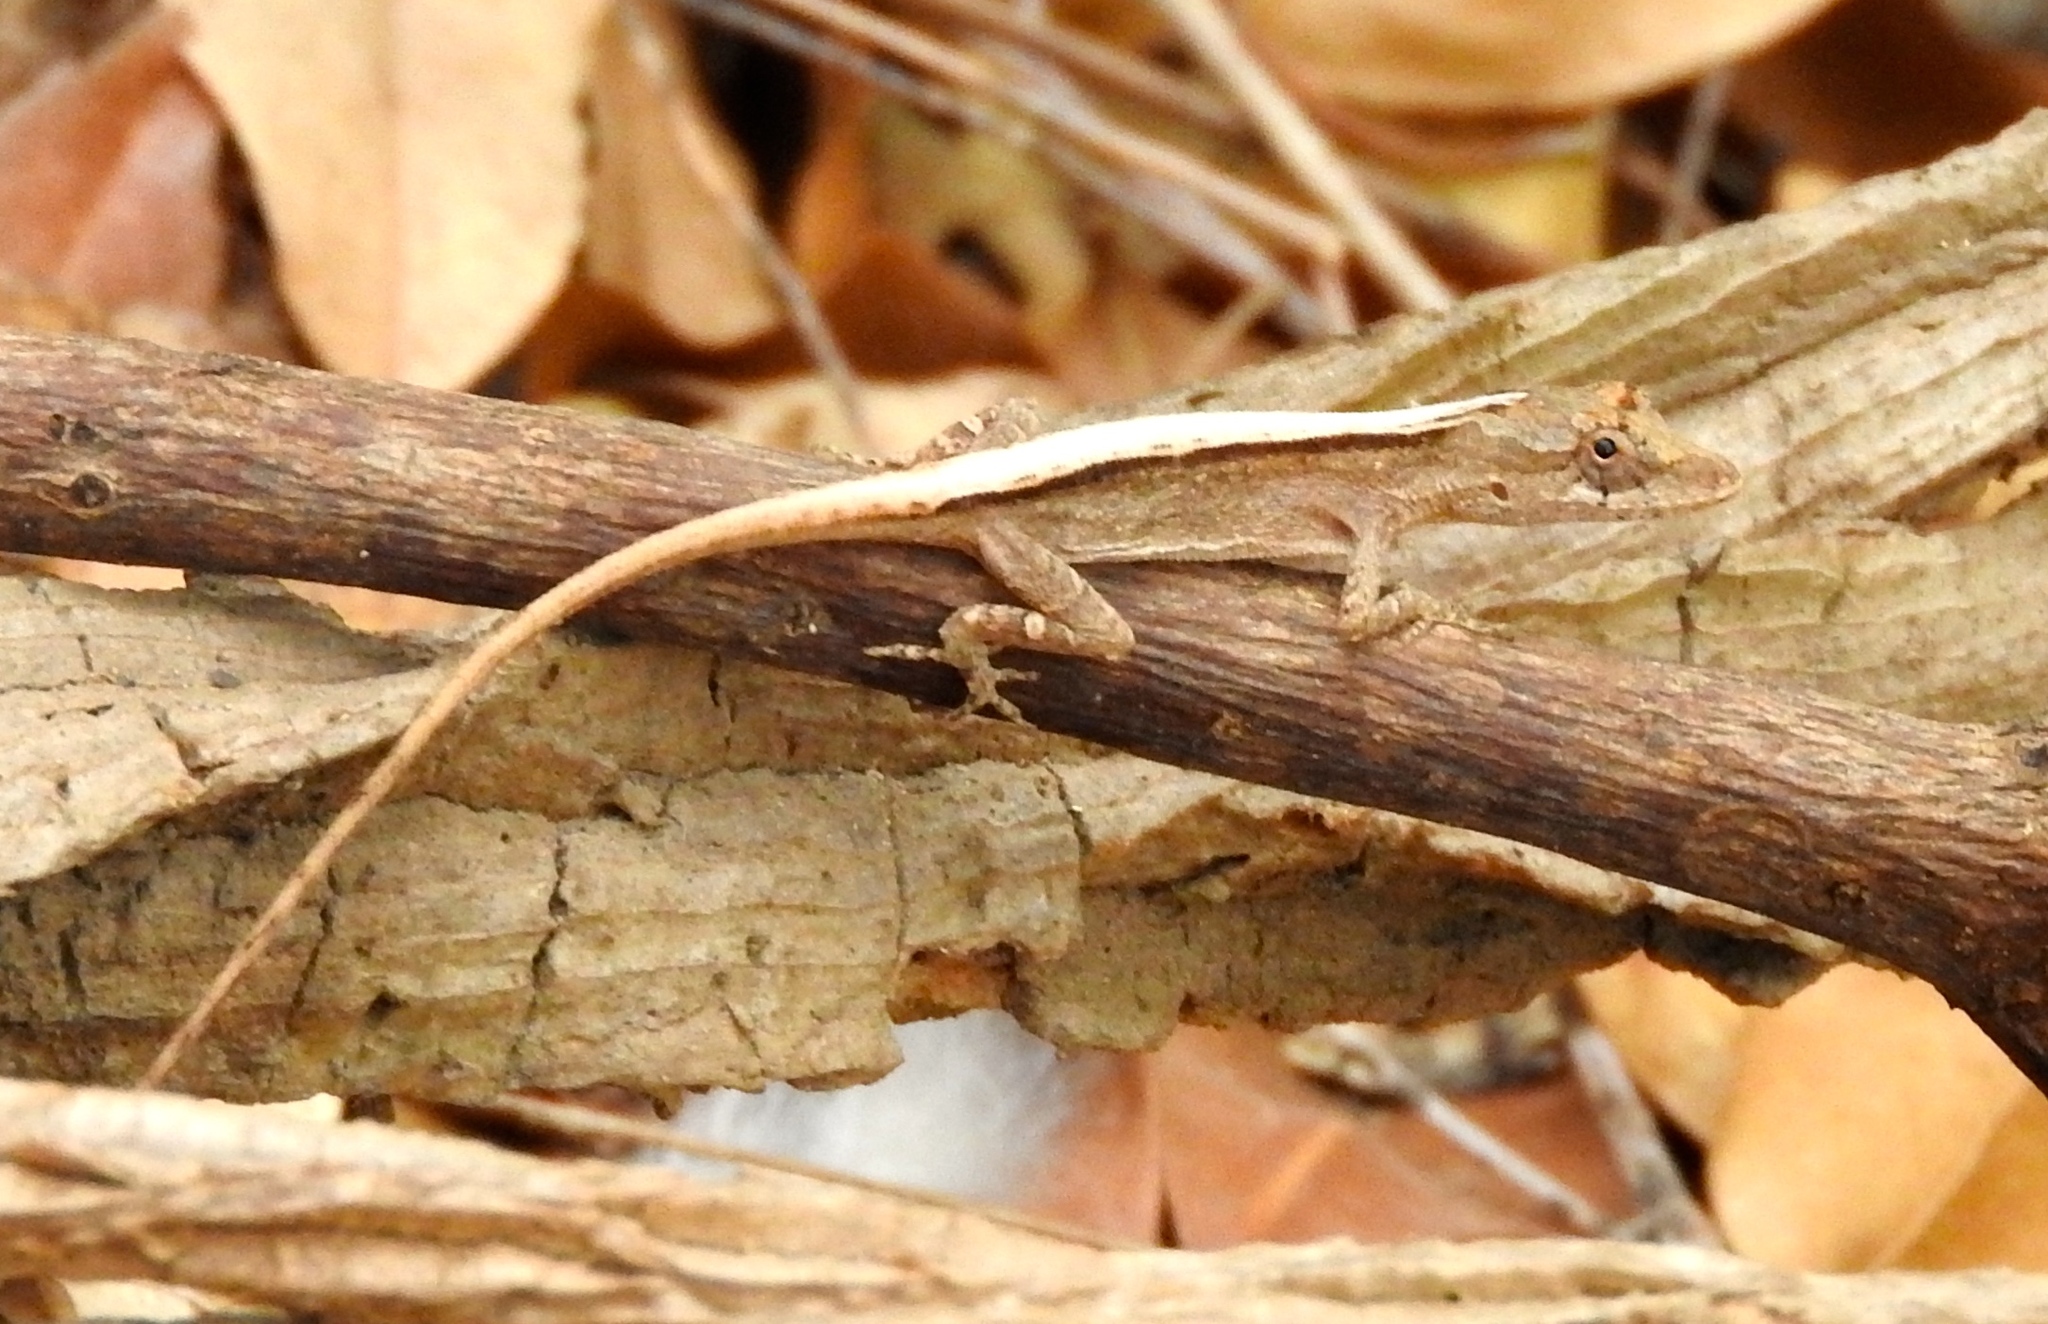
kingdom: Animalia
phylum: Chordata
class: Squamata
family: Dactyloidae
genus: Anolis
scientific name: Anolis nebulosus
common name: Clouded anole
